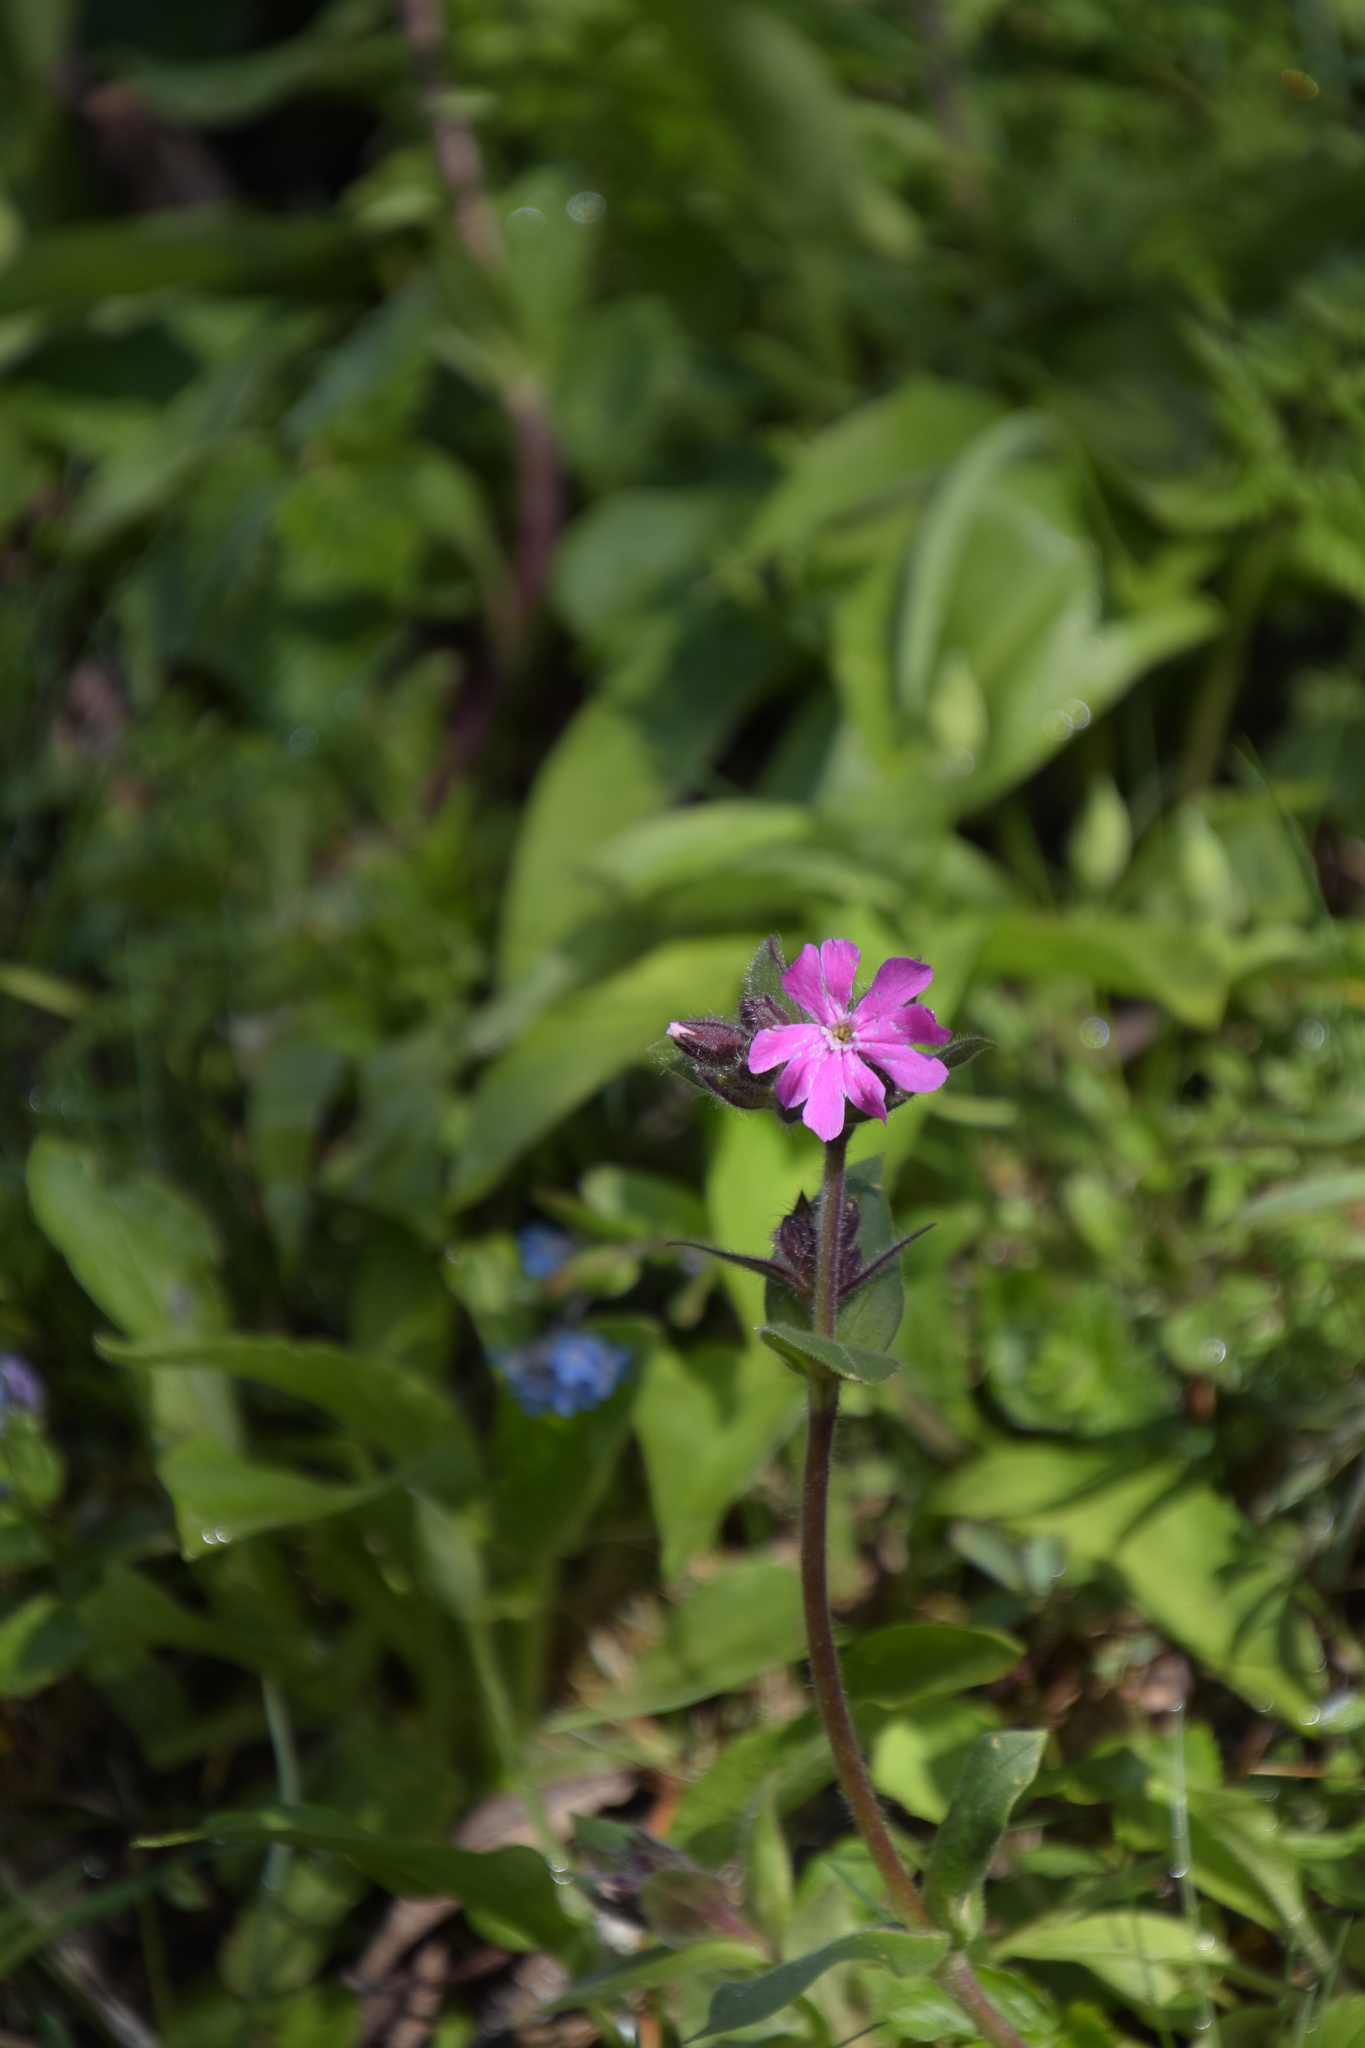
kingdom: Plantae
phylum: Tracheophyta
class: Magnoliopsida
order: Caryophyllales
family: Caryophyllaceae
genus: Silene
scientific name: Silene dioica
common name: Red campion
